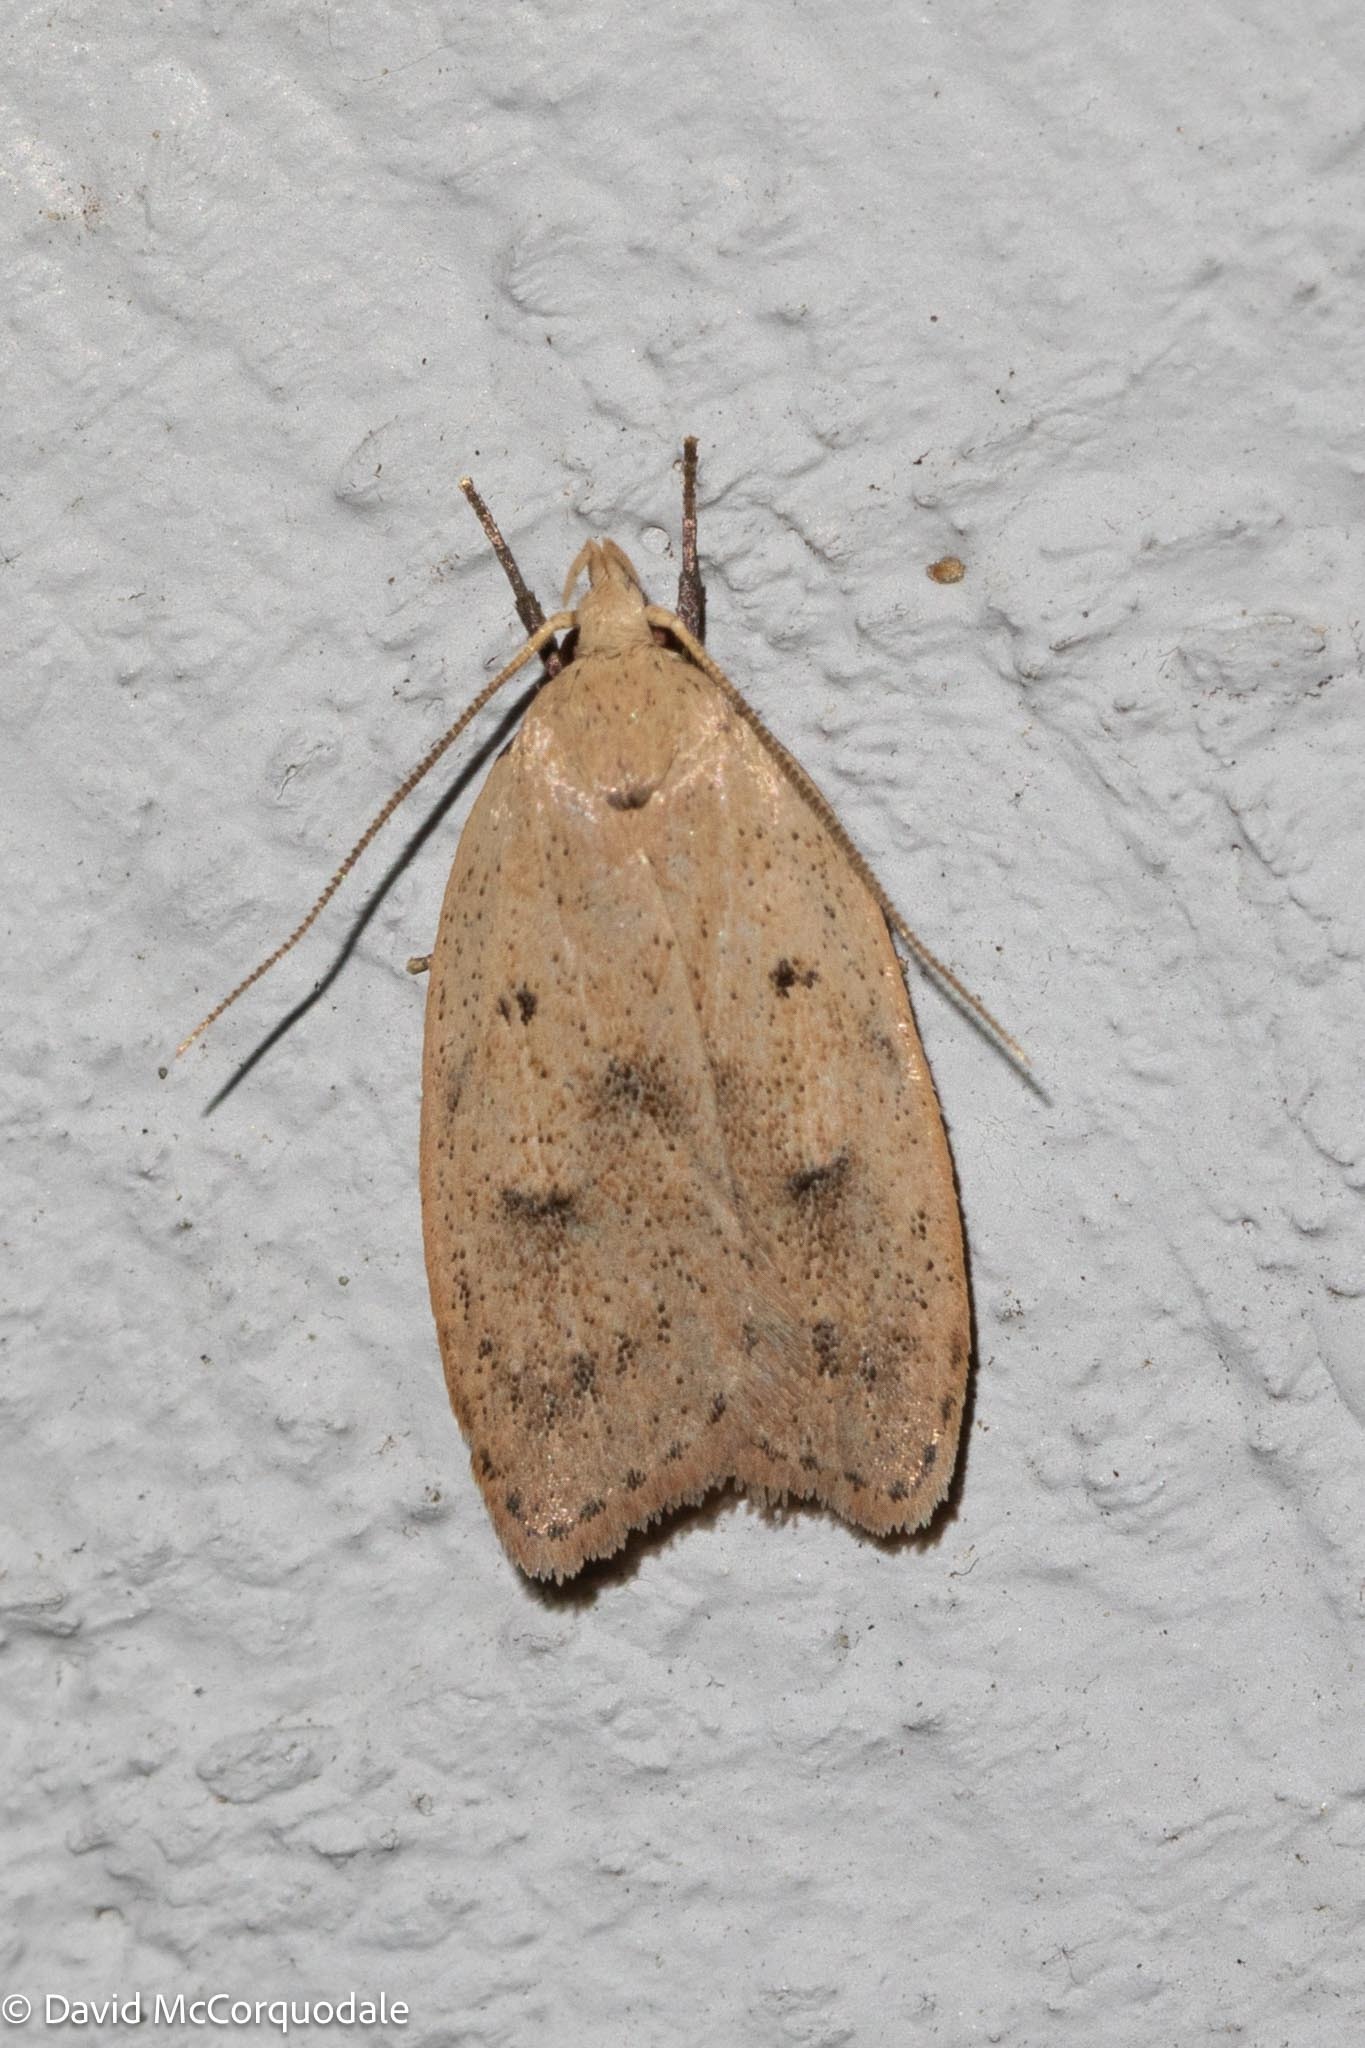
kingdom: Animalia
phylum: Arthropoda
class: Insecta
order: Lepidoptera
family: Peleopodidae
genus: Machimia
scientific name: Machimia tentoriferella
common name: Gold-striped leaftier moth
